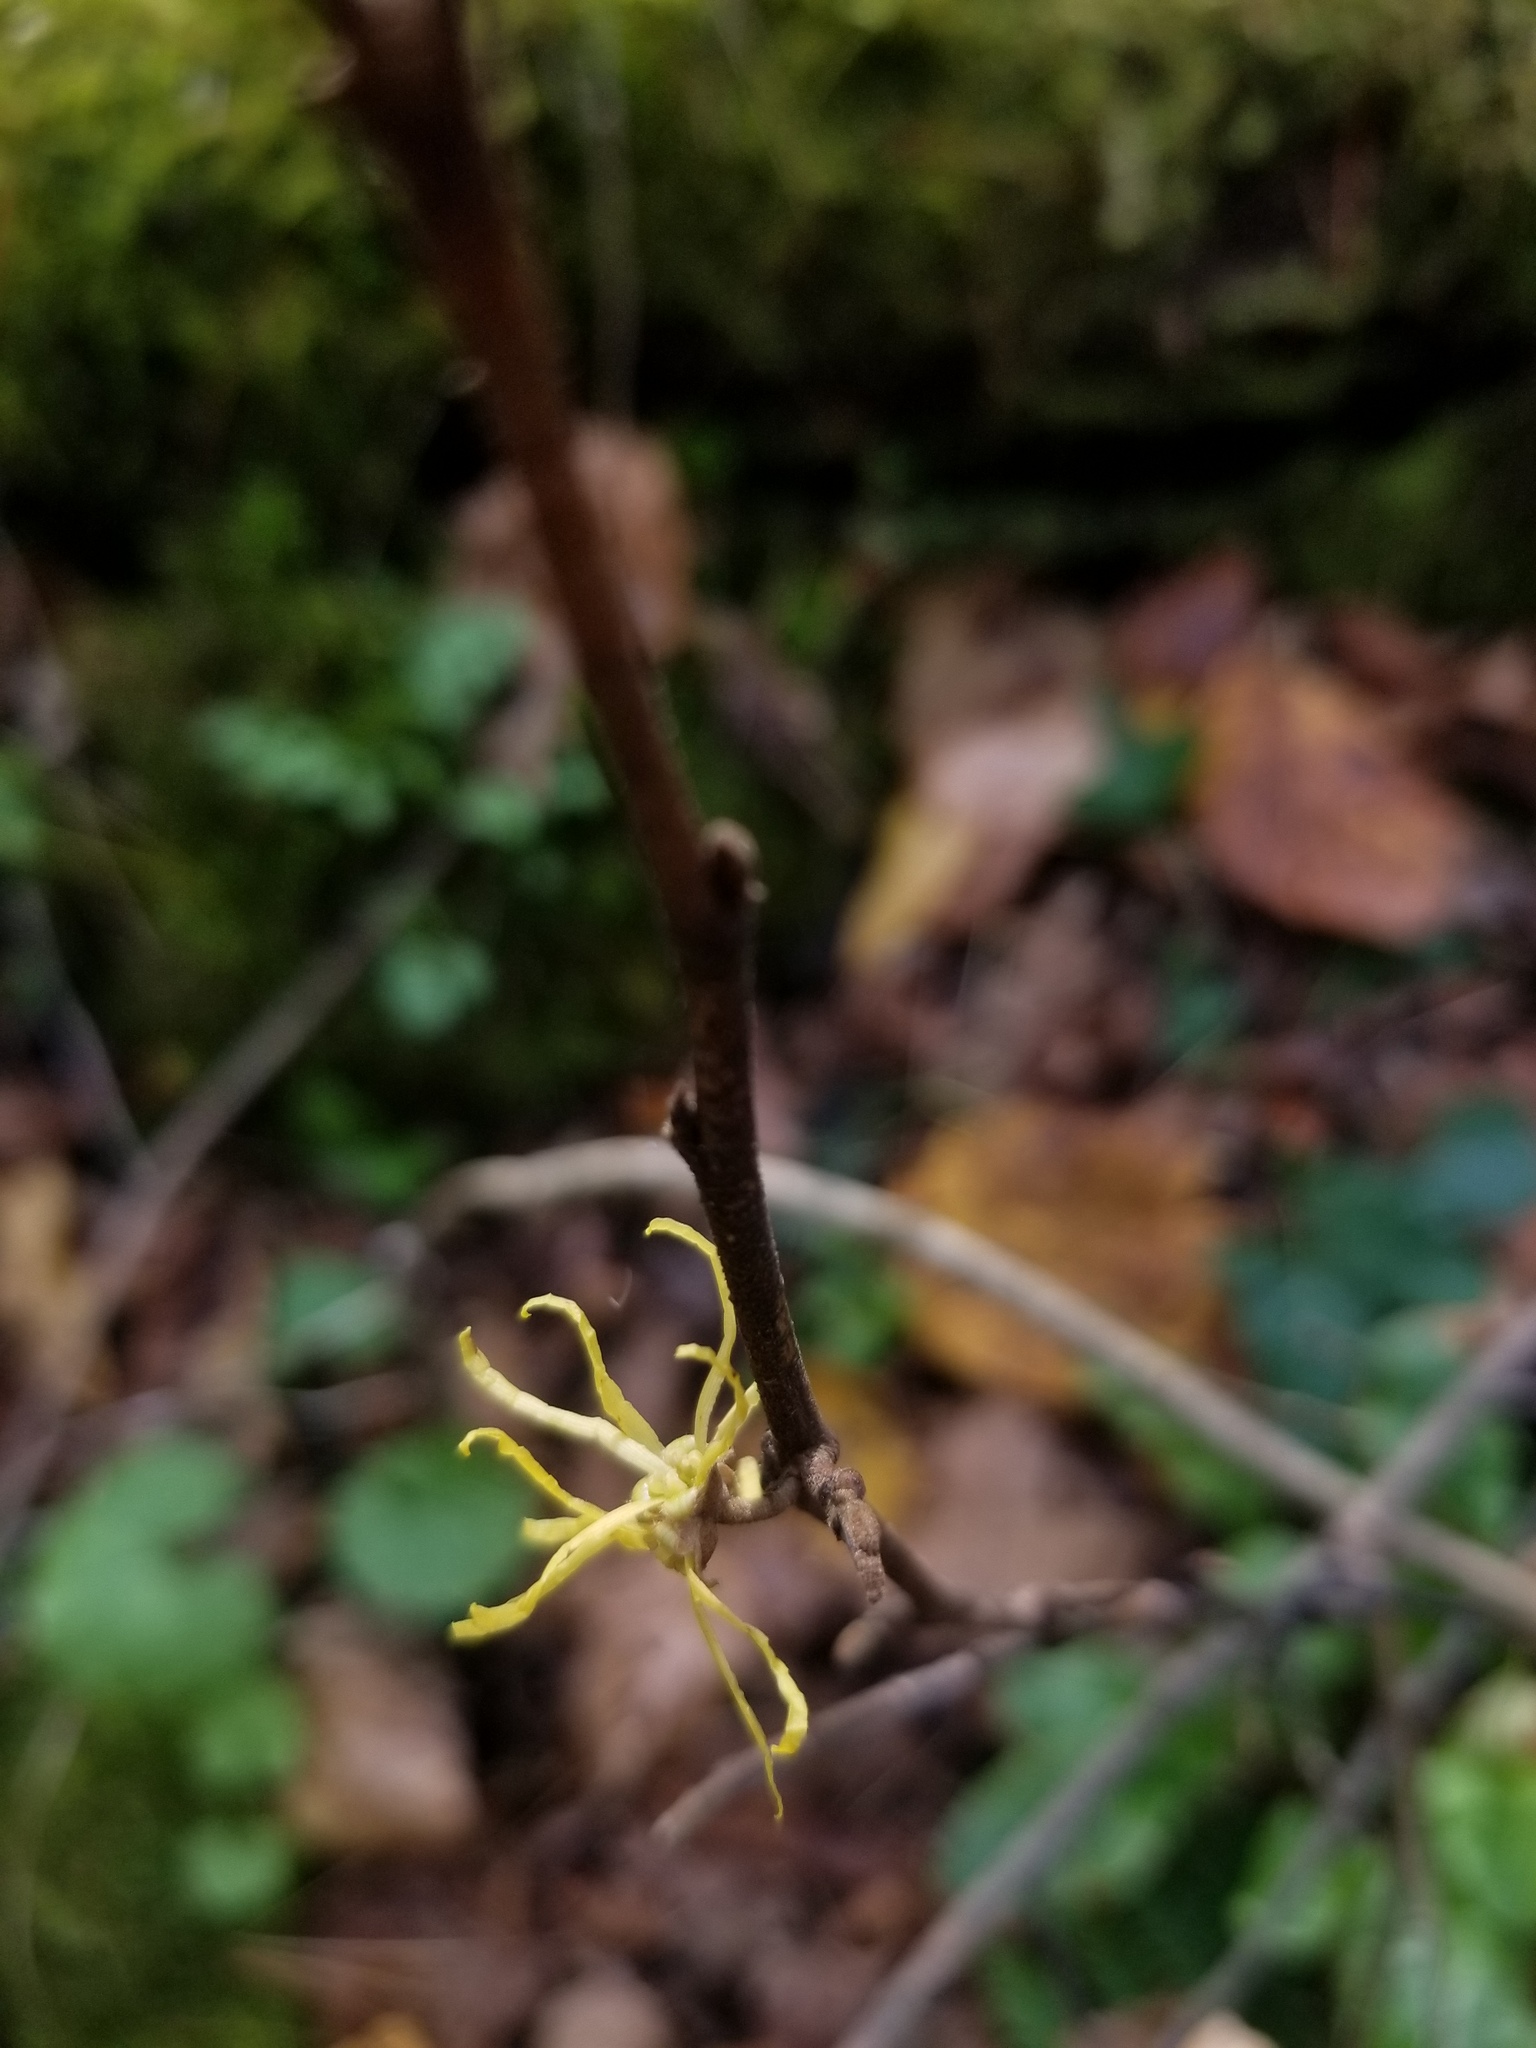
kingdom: Plantae
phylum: Tracheophyta
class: Magnoliopsida
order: Saxifragales
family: Hamamelidaceae
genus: Hamamelis
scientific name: Hamamelis virginiana
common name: Witch-hazel
